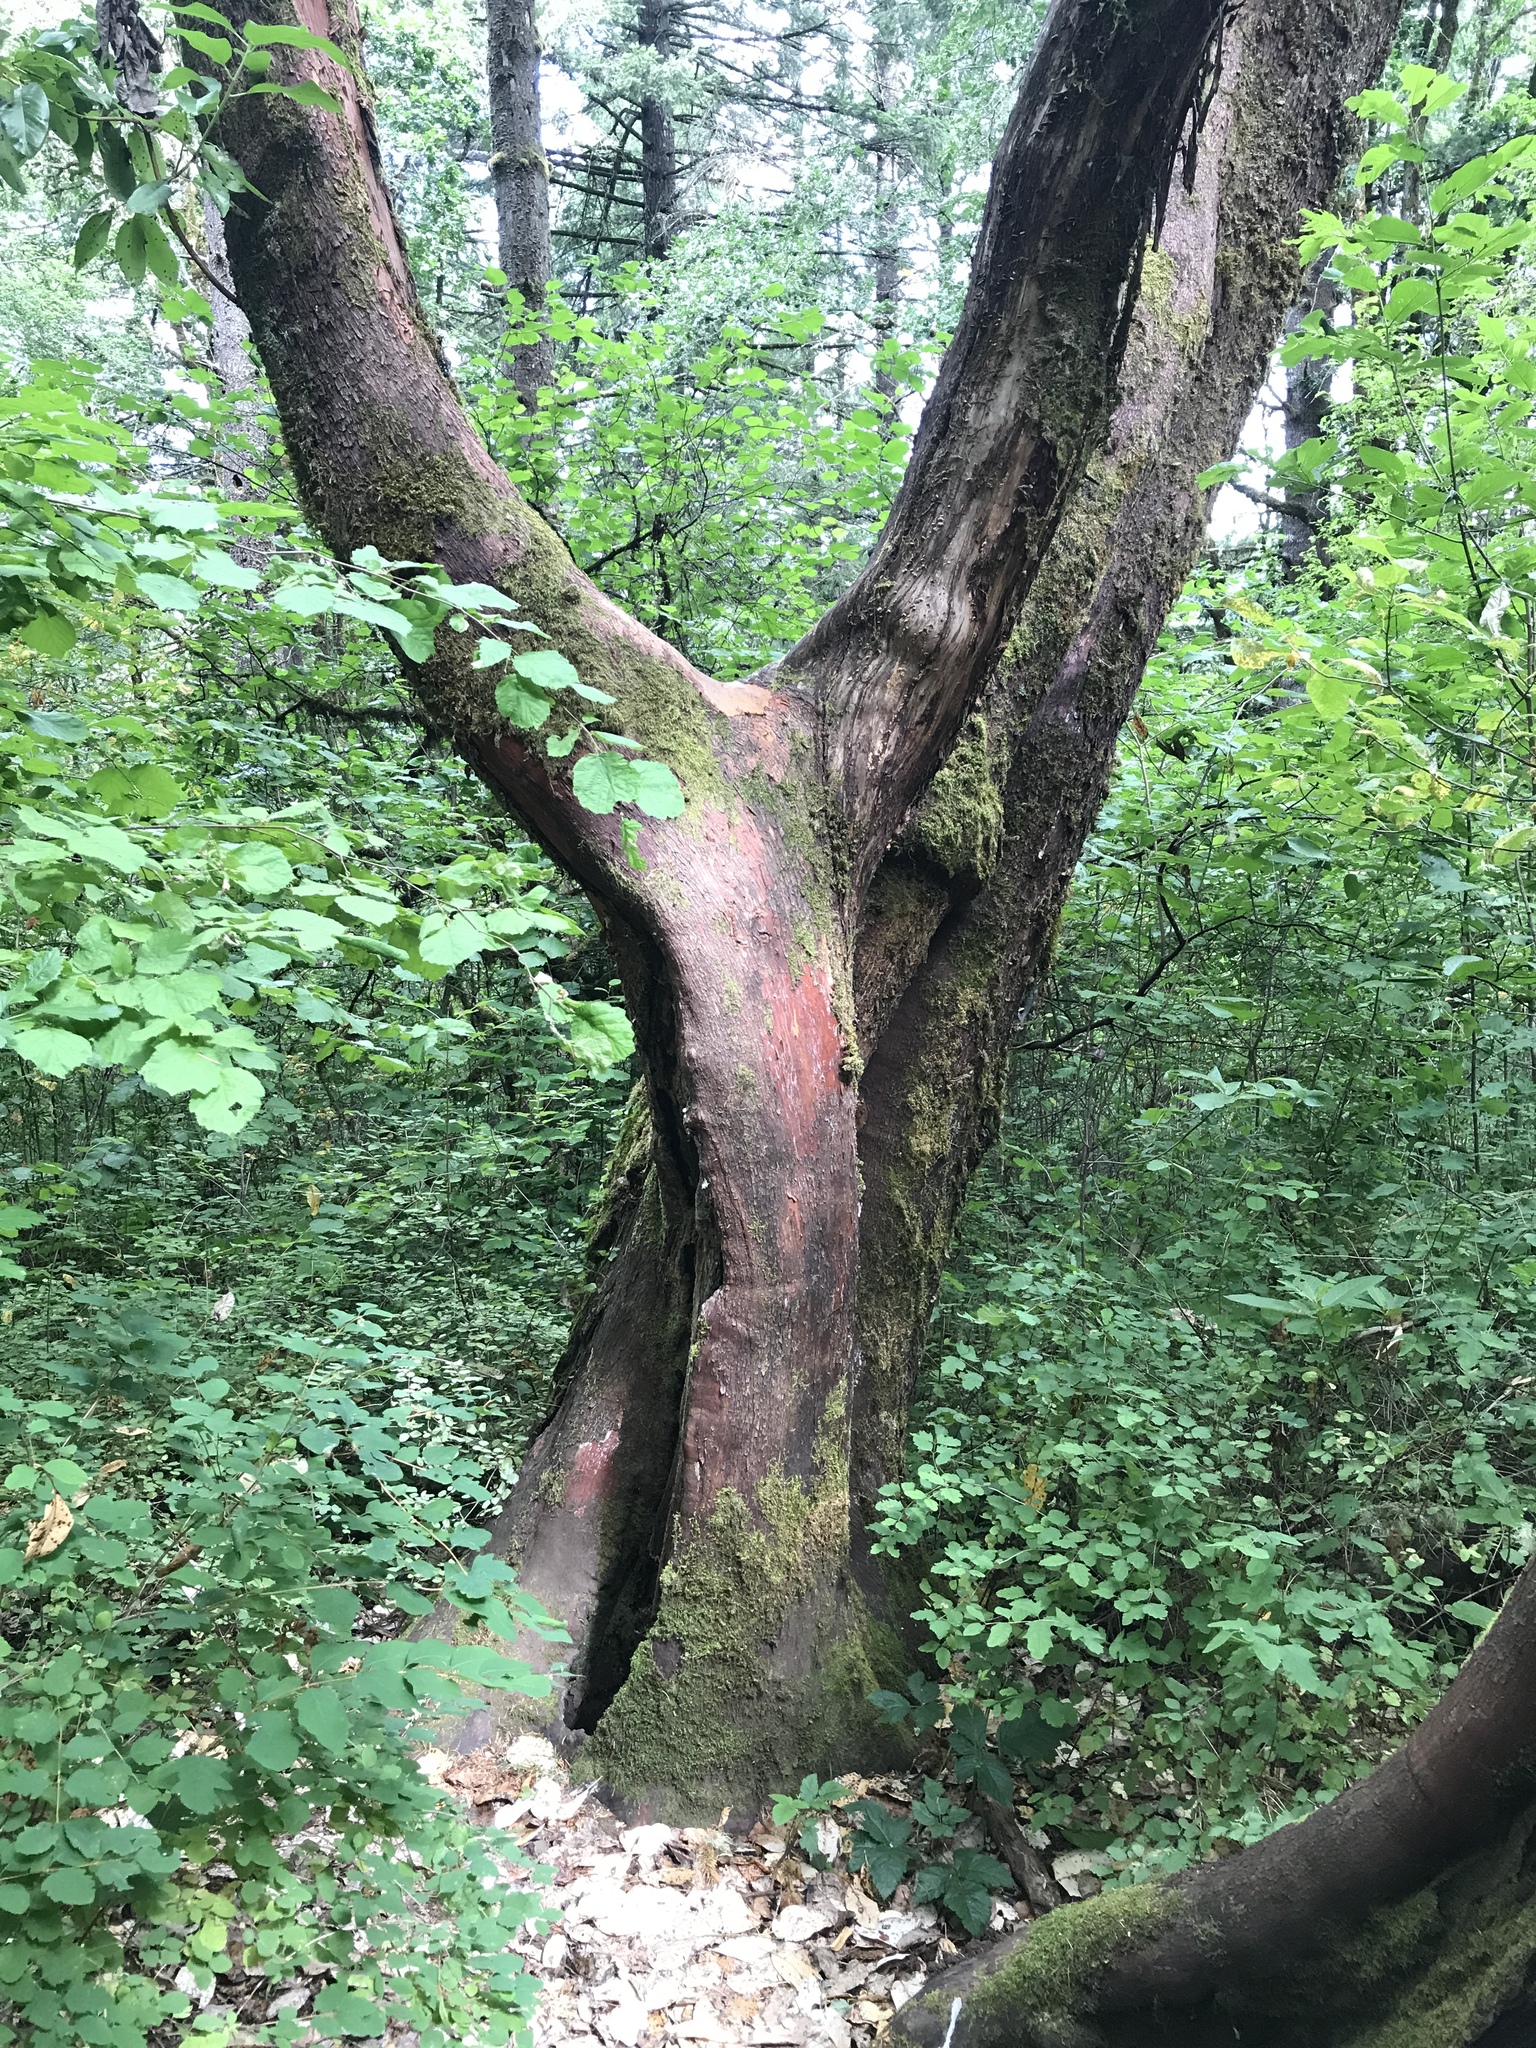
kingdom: Plantae
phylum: Tracheophyta
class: Magnoliopsida
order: Ericales
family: Ericaceae
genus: Arbutus
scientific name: Arbutus menziesii
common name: Pacific madrone
